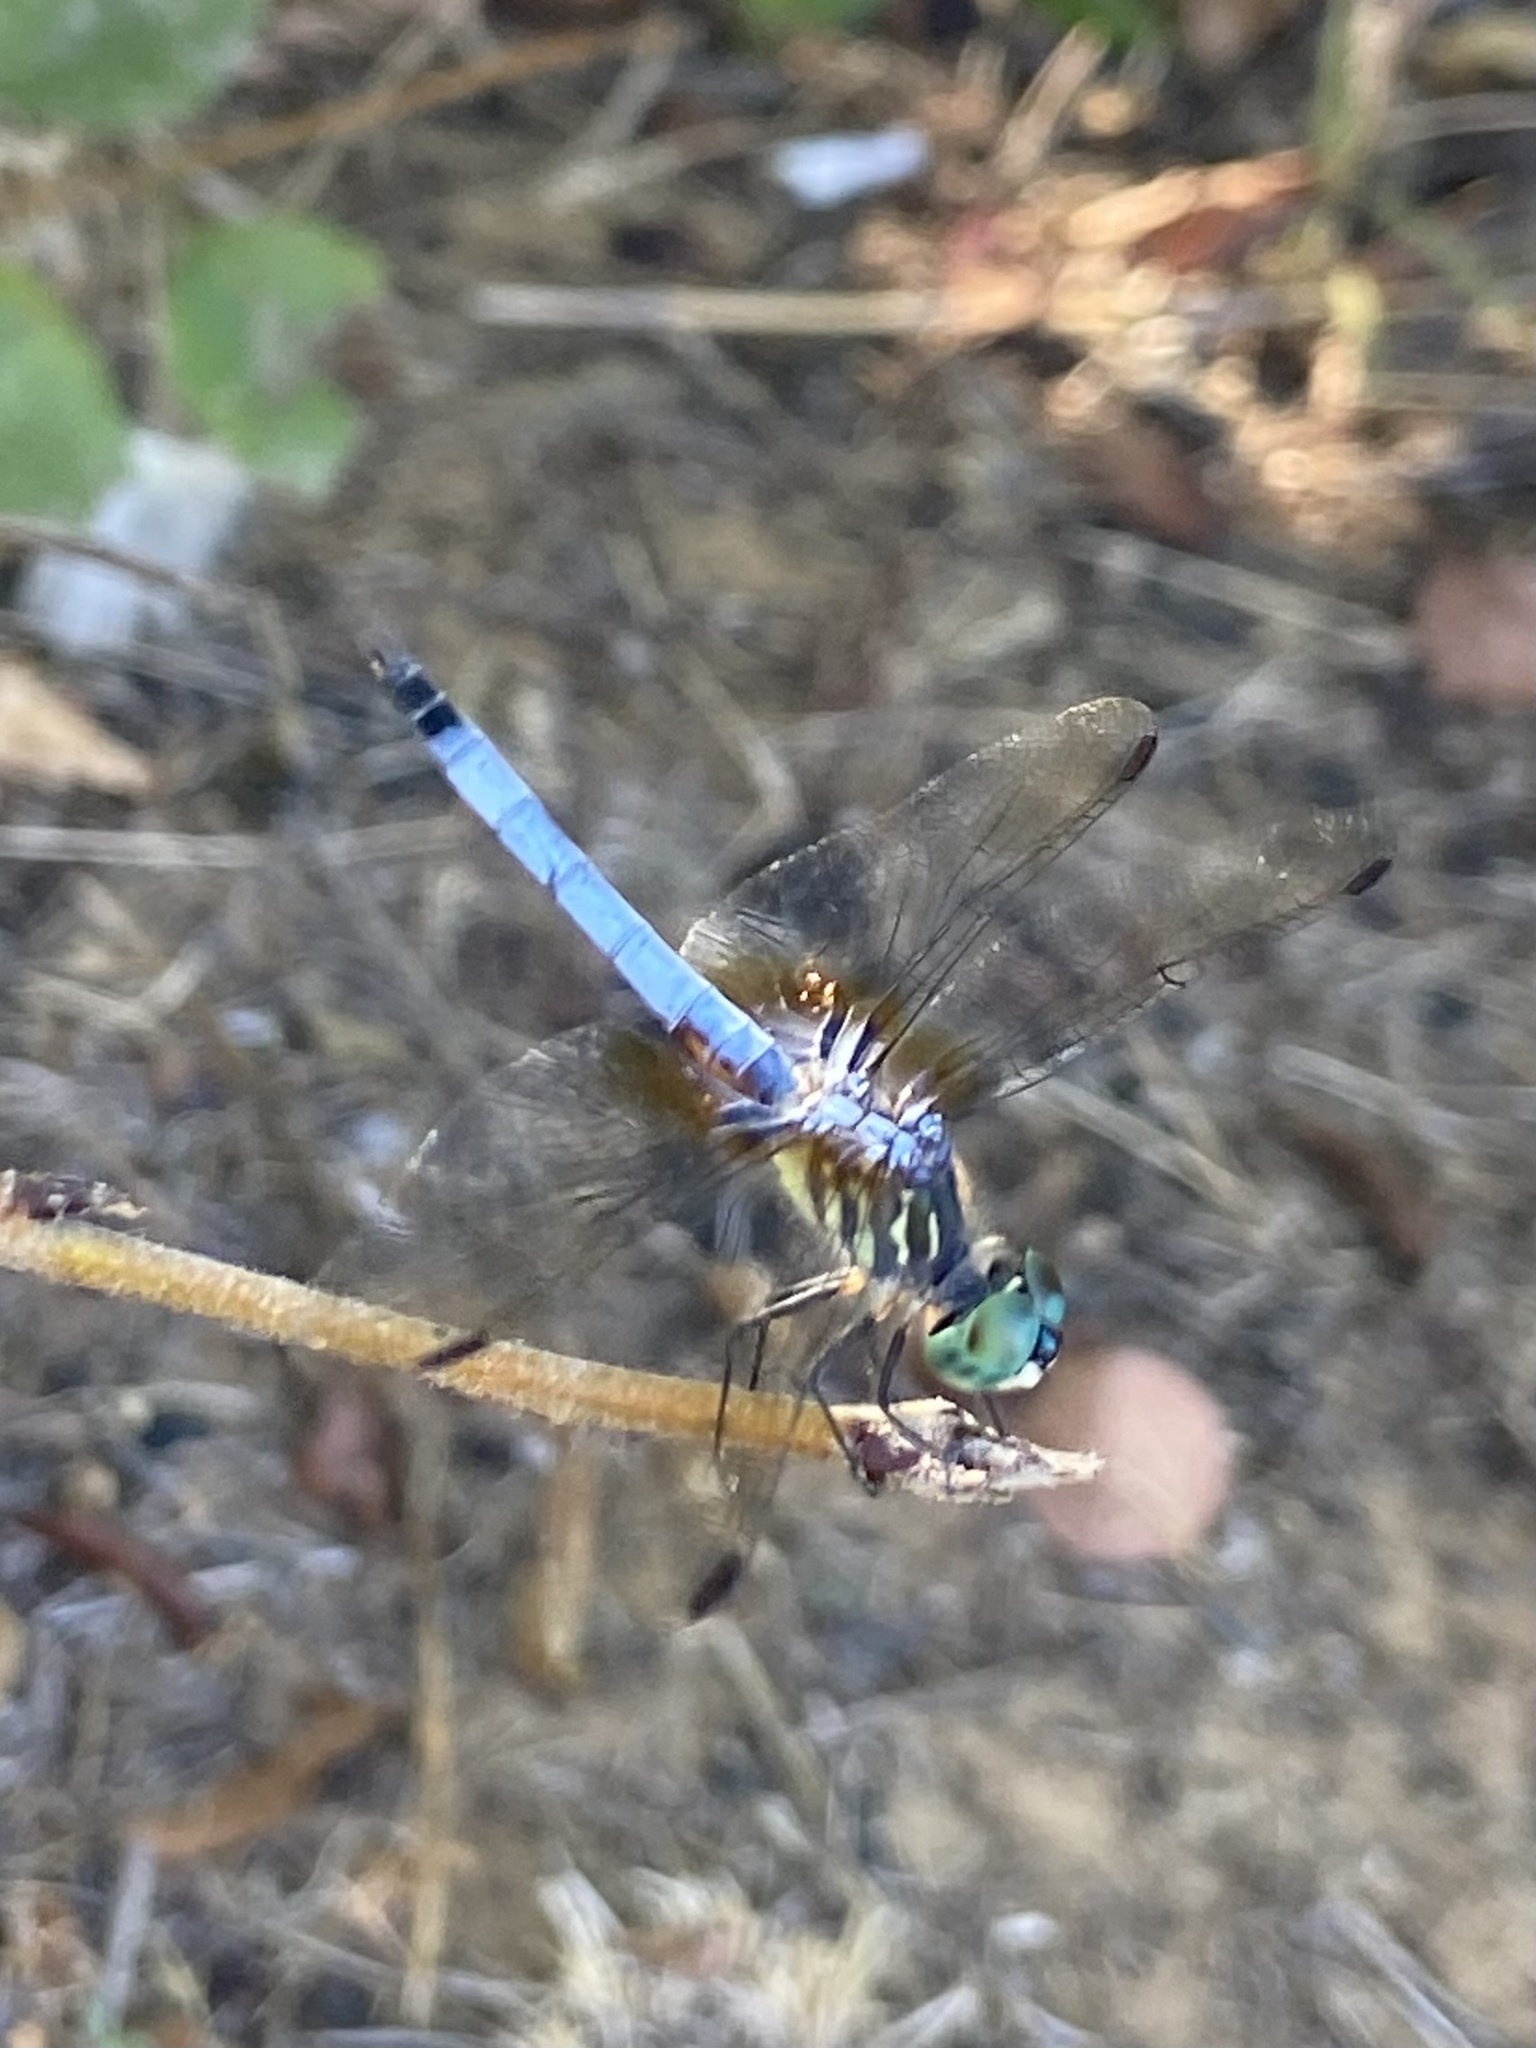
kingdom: Animalia
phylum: Arthropoda
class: Insecta
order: Odonata
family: Libellulidae
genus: Pachydiplax
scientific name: Pachydiplax longipennis
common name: Blue dasher
